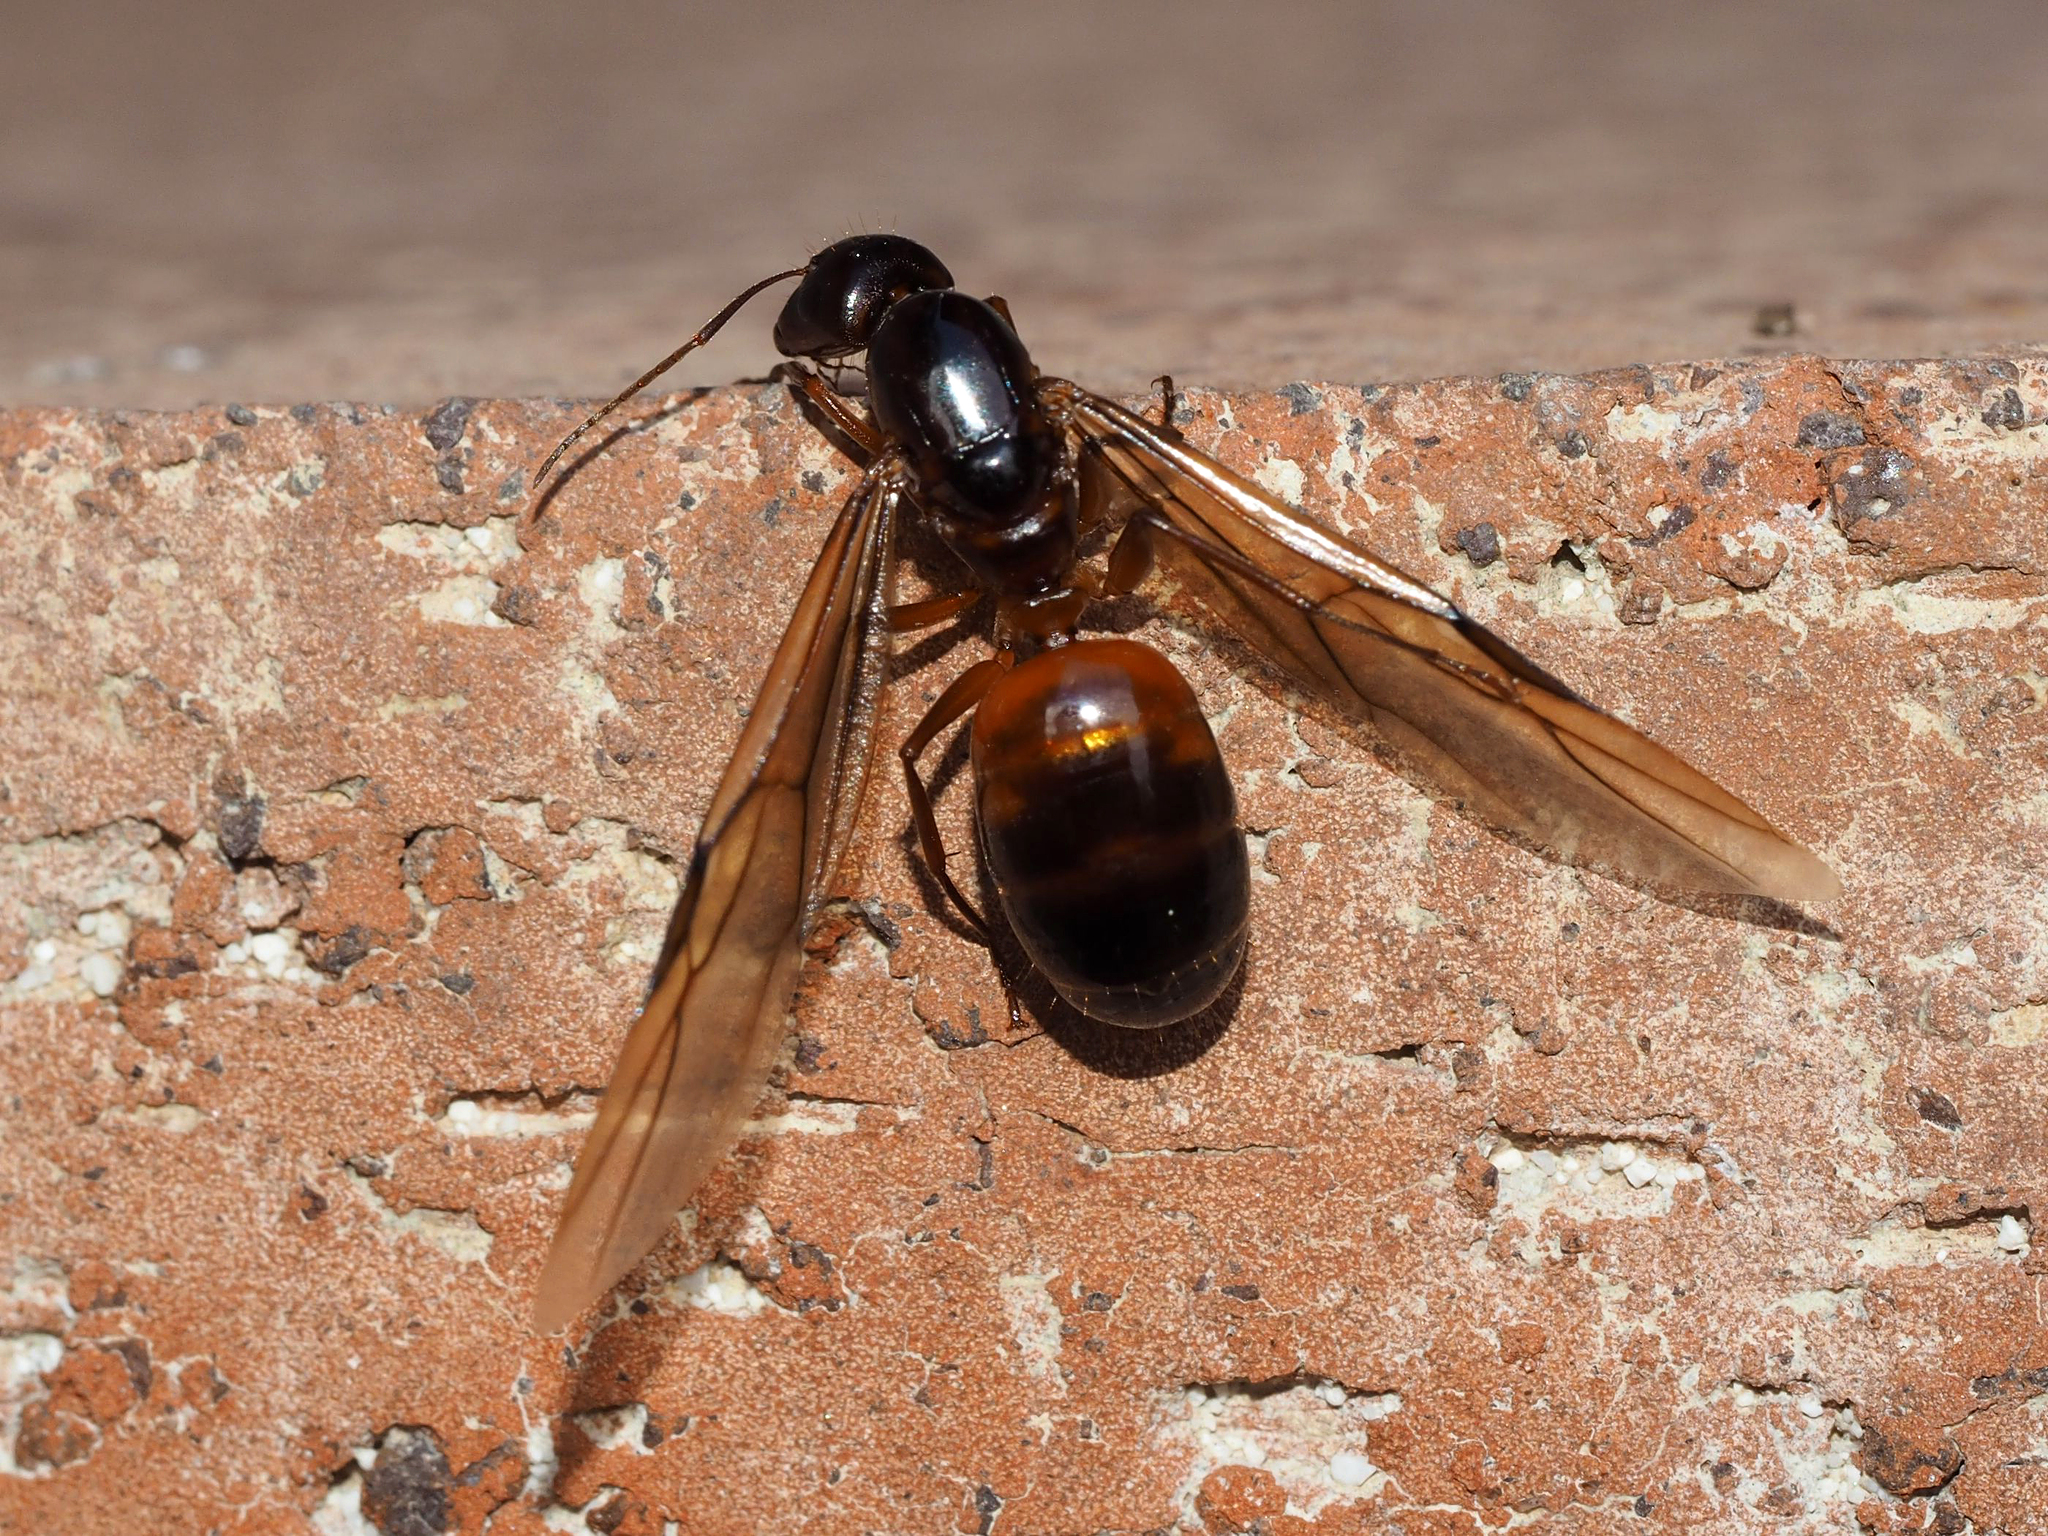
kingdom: Animalia
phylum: Arthropoda
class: Insecta
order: Hymenoptera
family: Formicidae
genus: Camponotus
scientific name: Camponotus nylanderi
